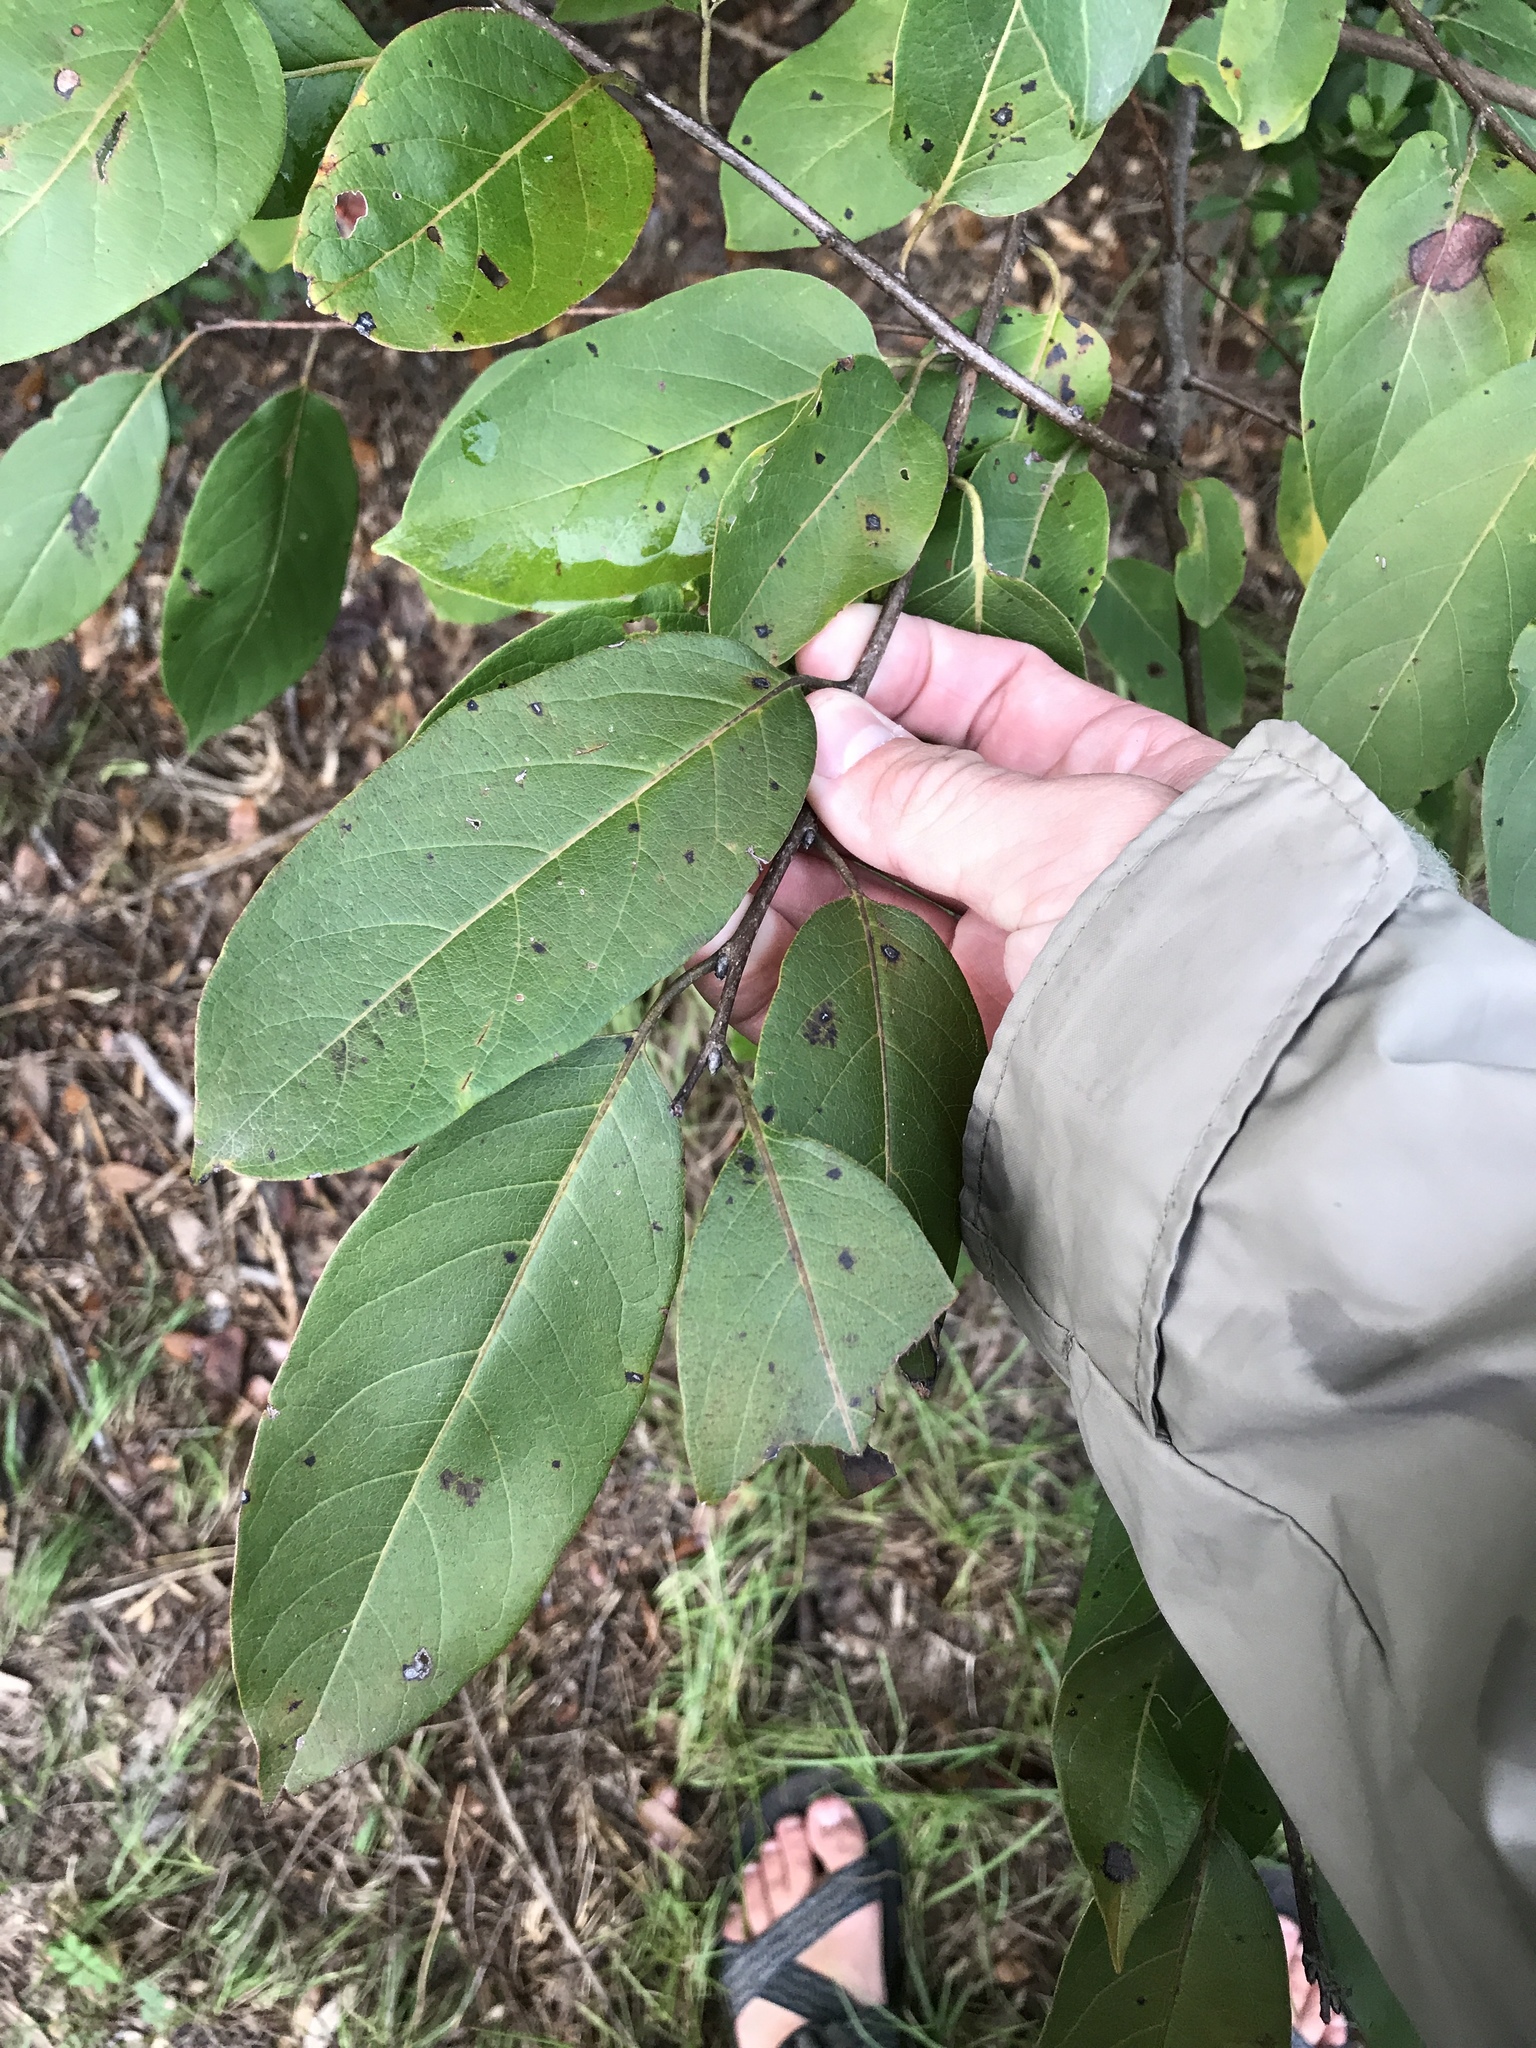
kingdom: Plantae
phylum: Tracheophyta
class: Magnoliopsida
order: Ericales
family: Ebenaceae
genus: Diospyros
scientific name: Diospyros virginiana
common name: Persimmon
